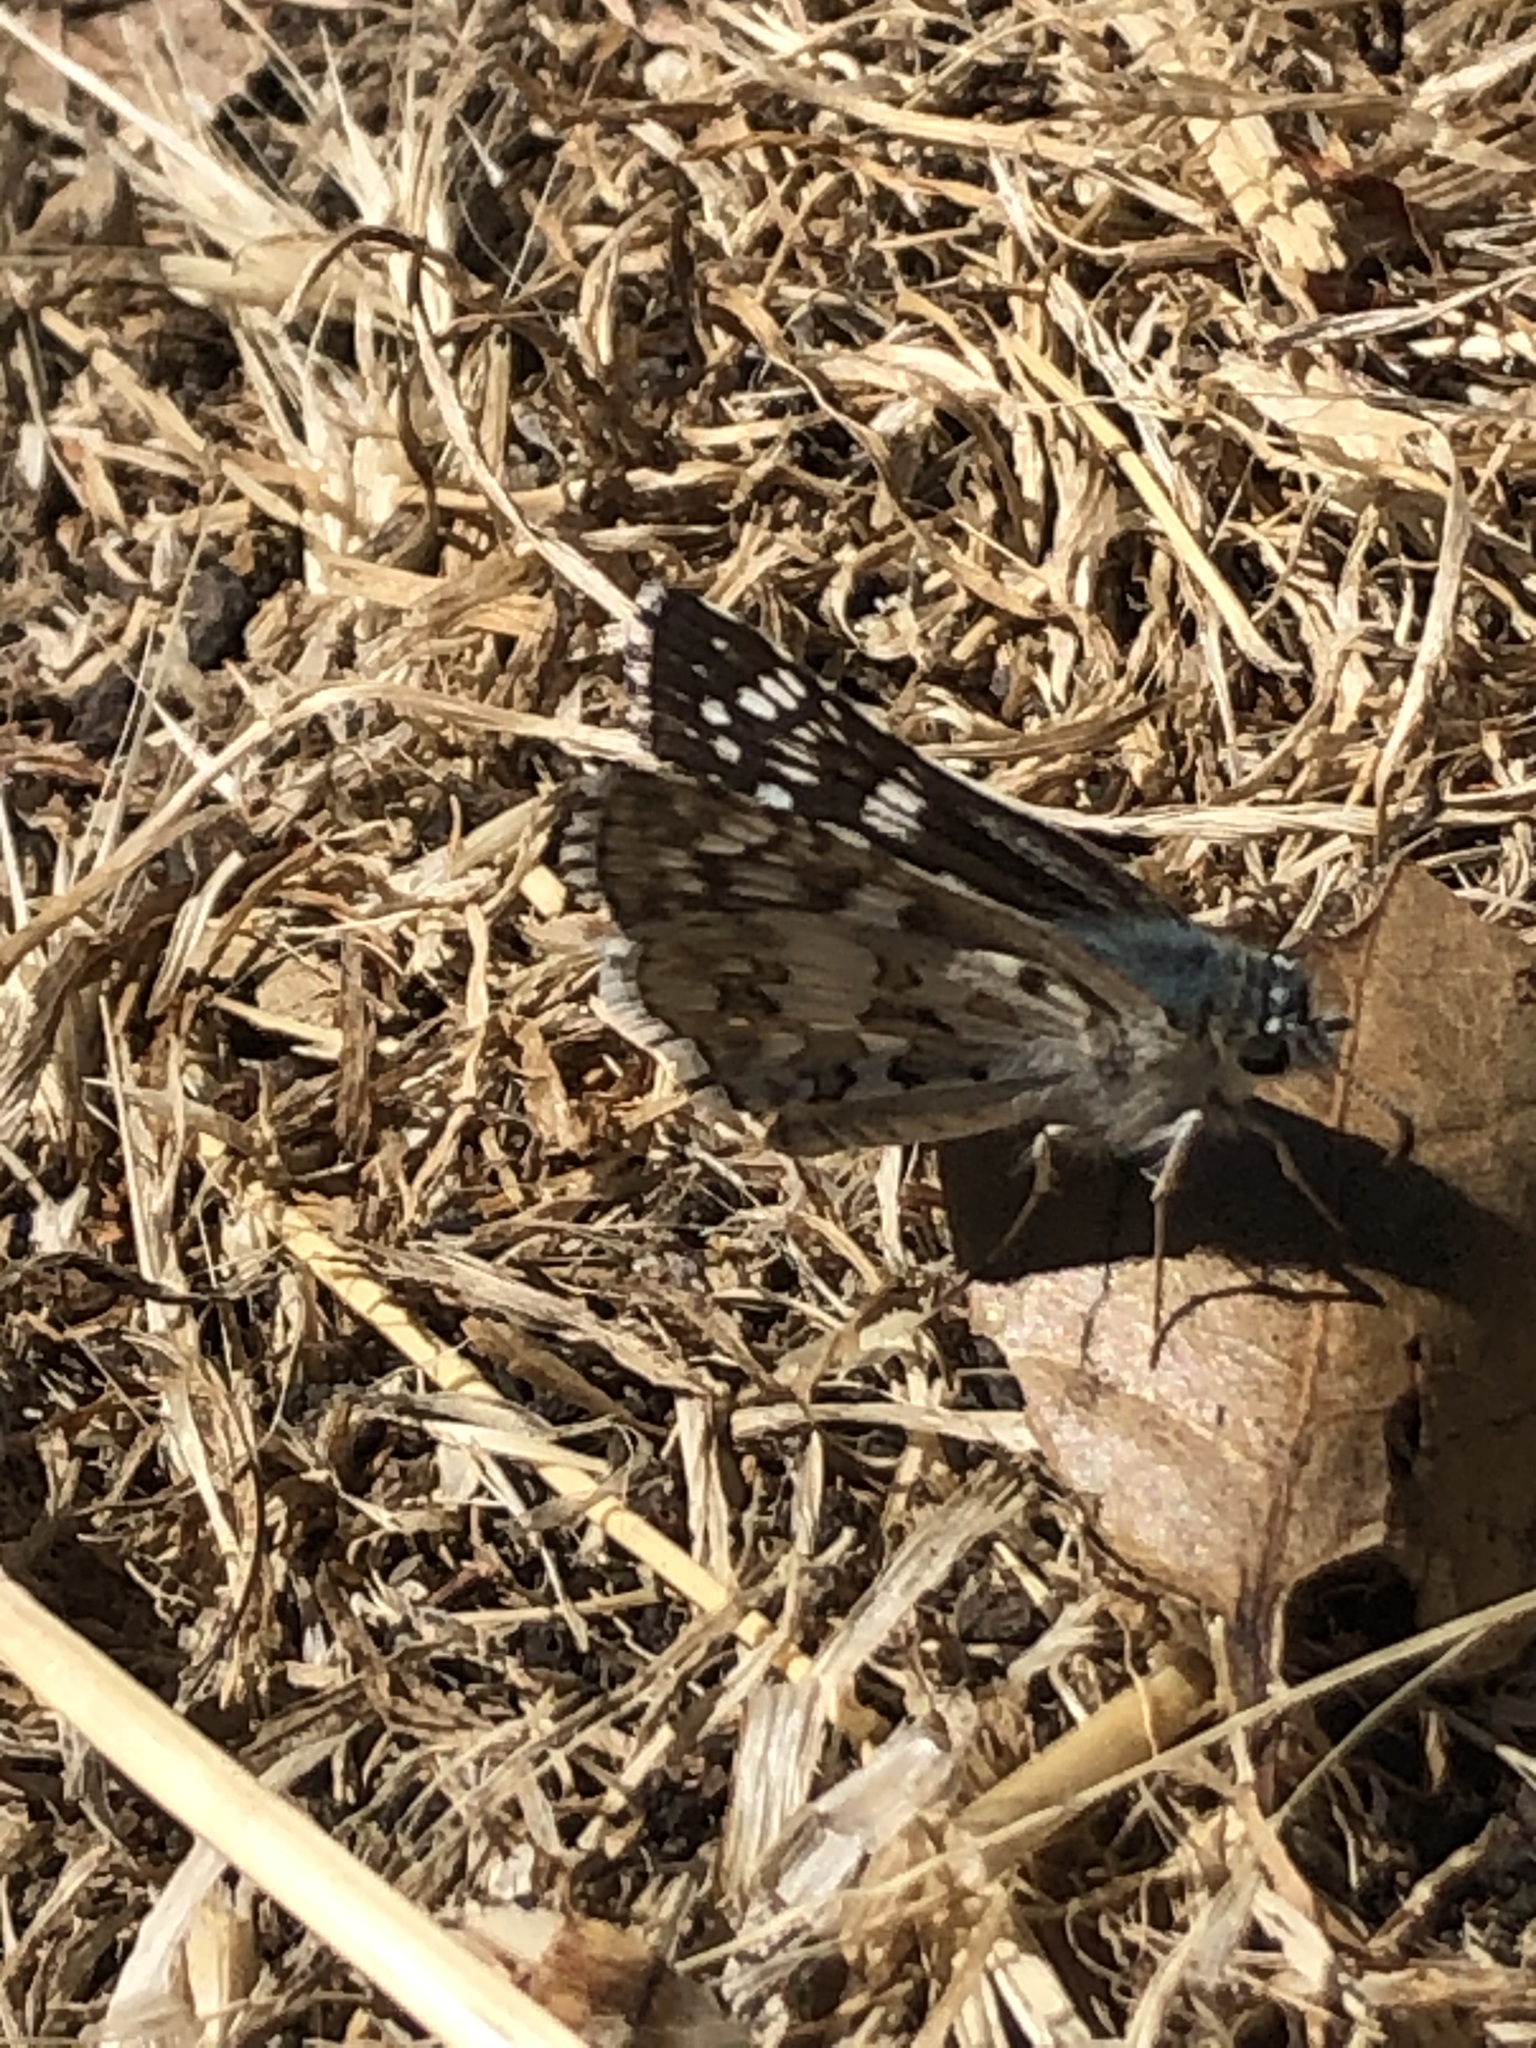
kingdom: Animalia
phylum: Arthropoda
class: Insecta
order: Lepidoptera
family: Hesperiidae
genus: Burnsius
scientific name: Burnsius communis
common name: Common checkered-skipper
